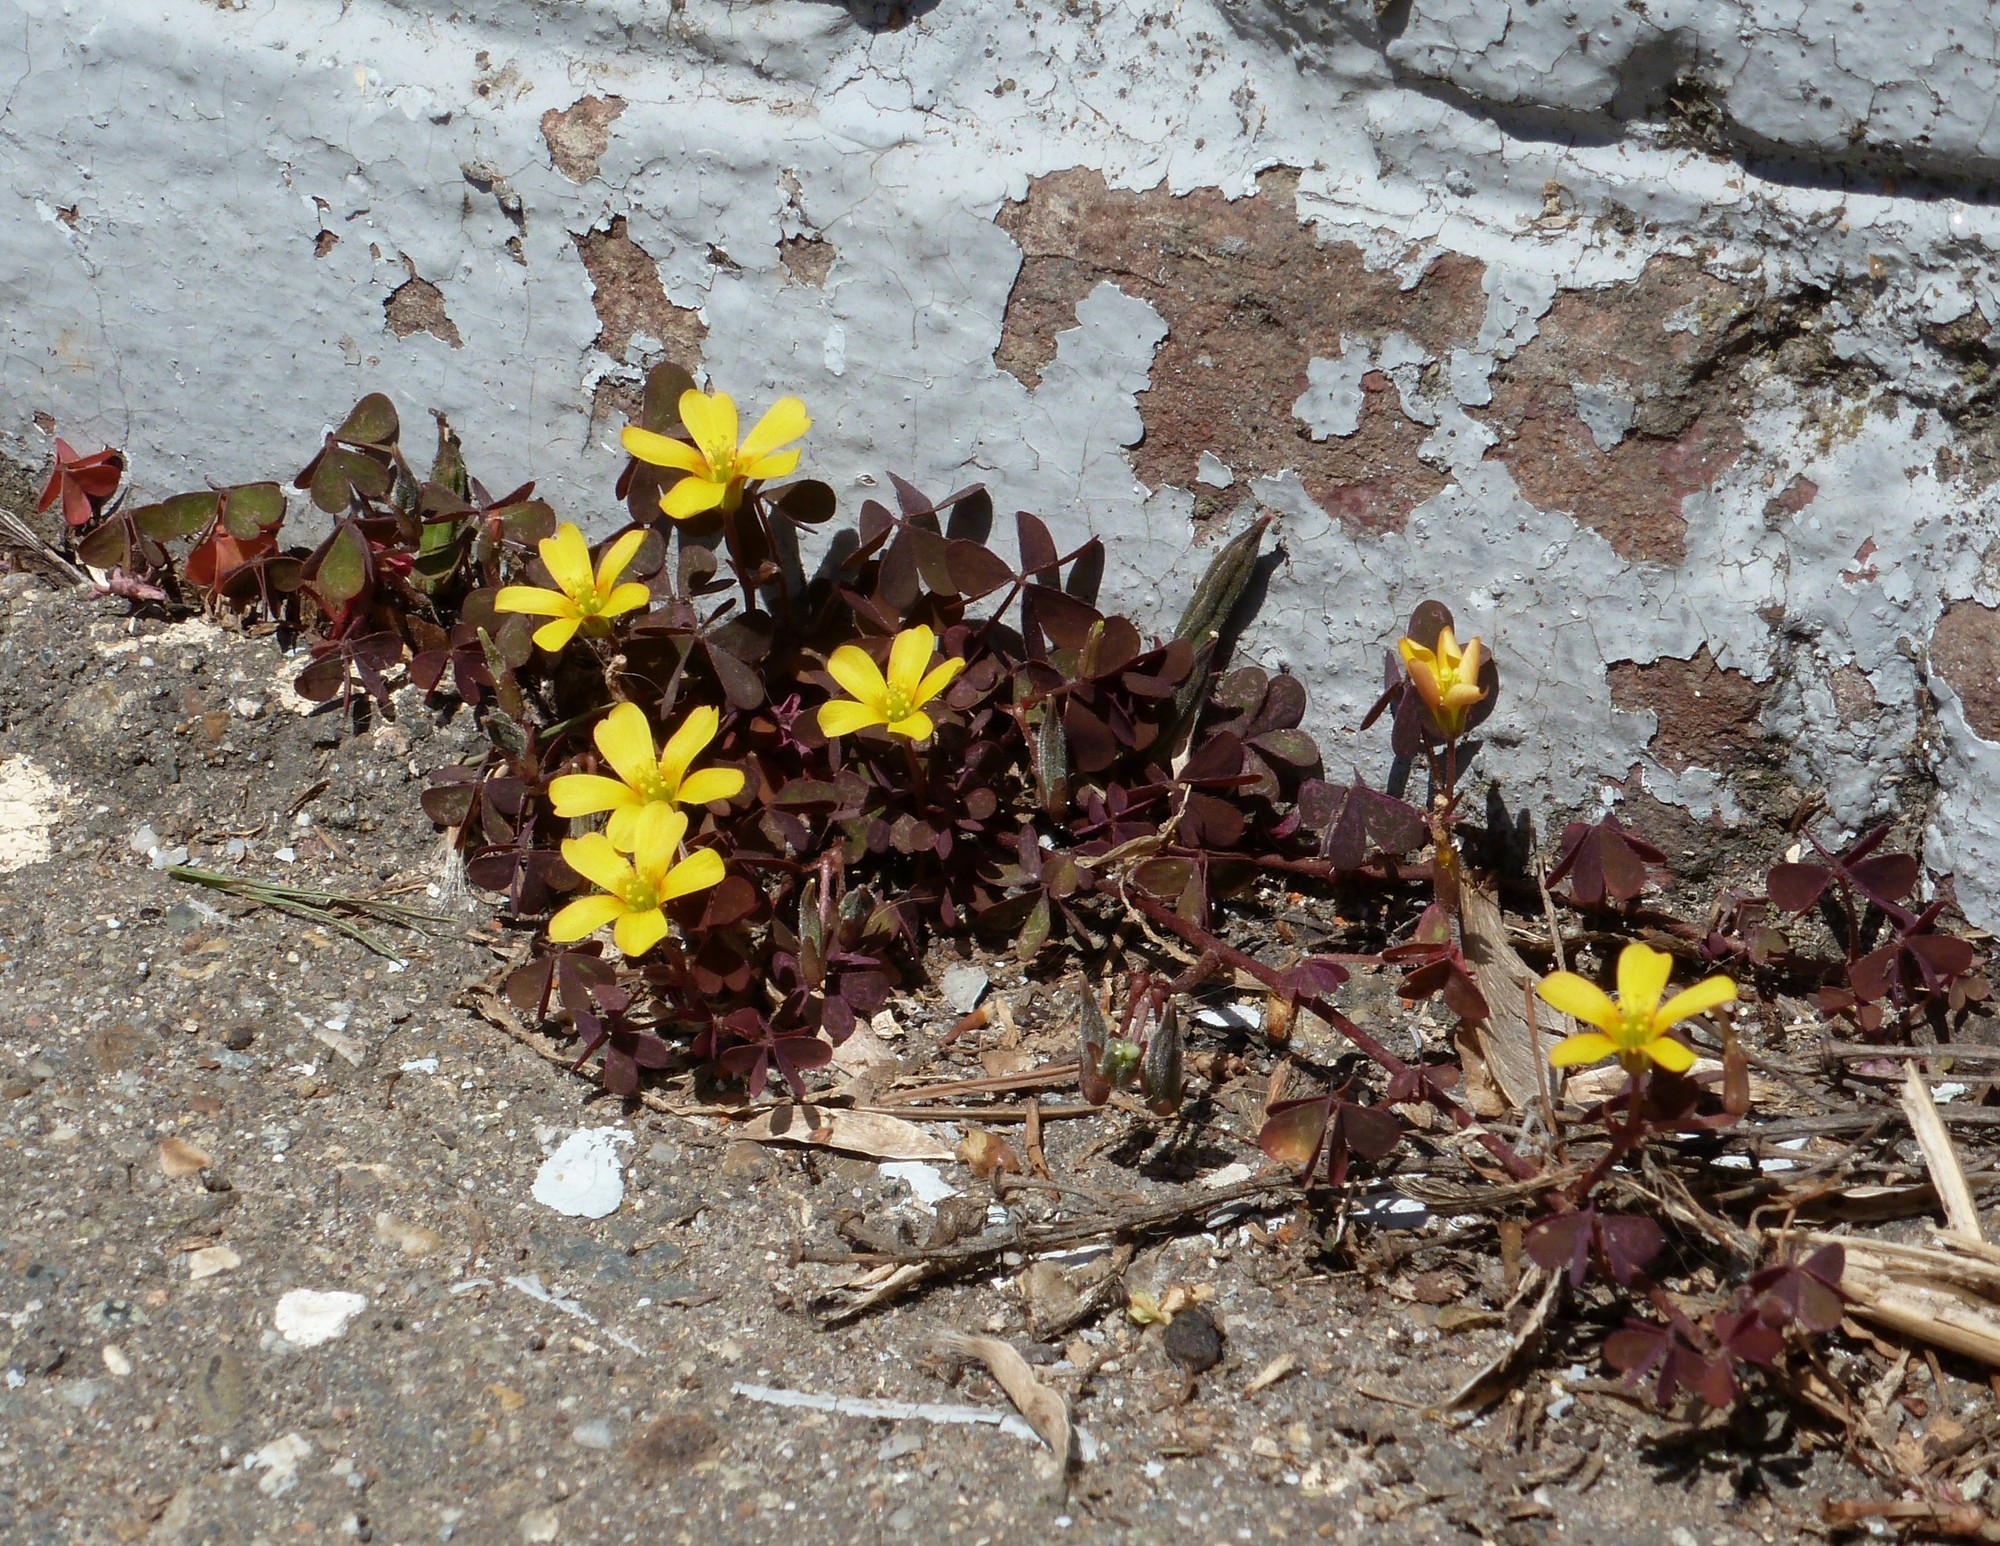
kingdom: Plantae
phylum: Tracheophyta
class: Magnoliopsida
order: Oxalidales
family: Oxalidaceae
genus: Oxalis
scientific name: Oxalis corniculata
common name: Procumbent yellow-sorrel
